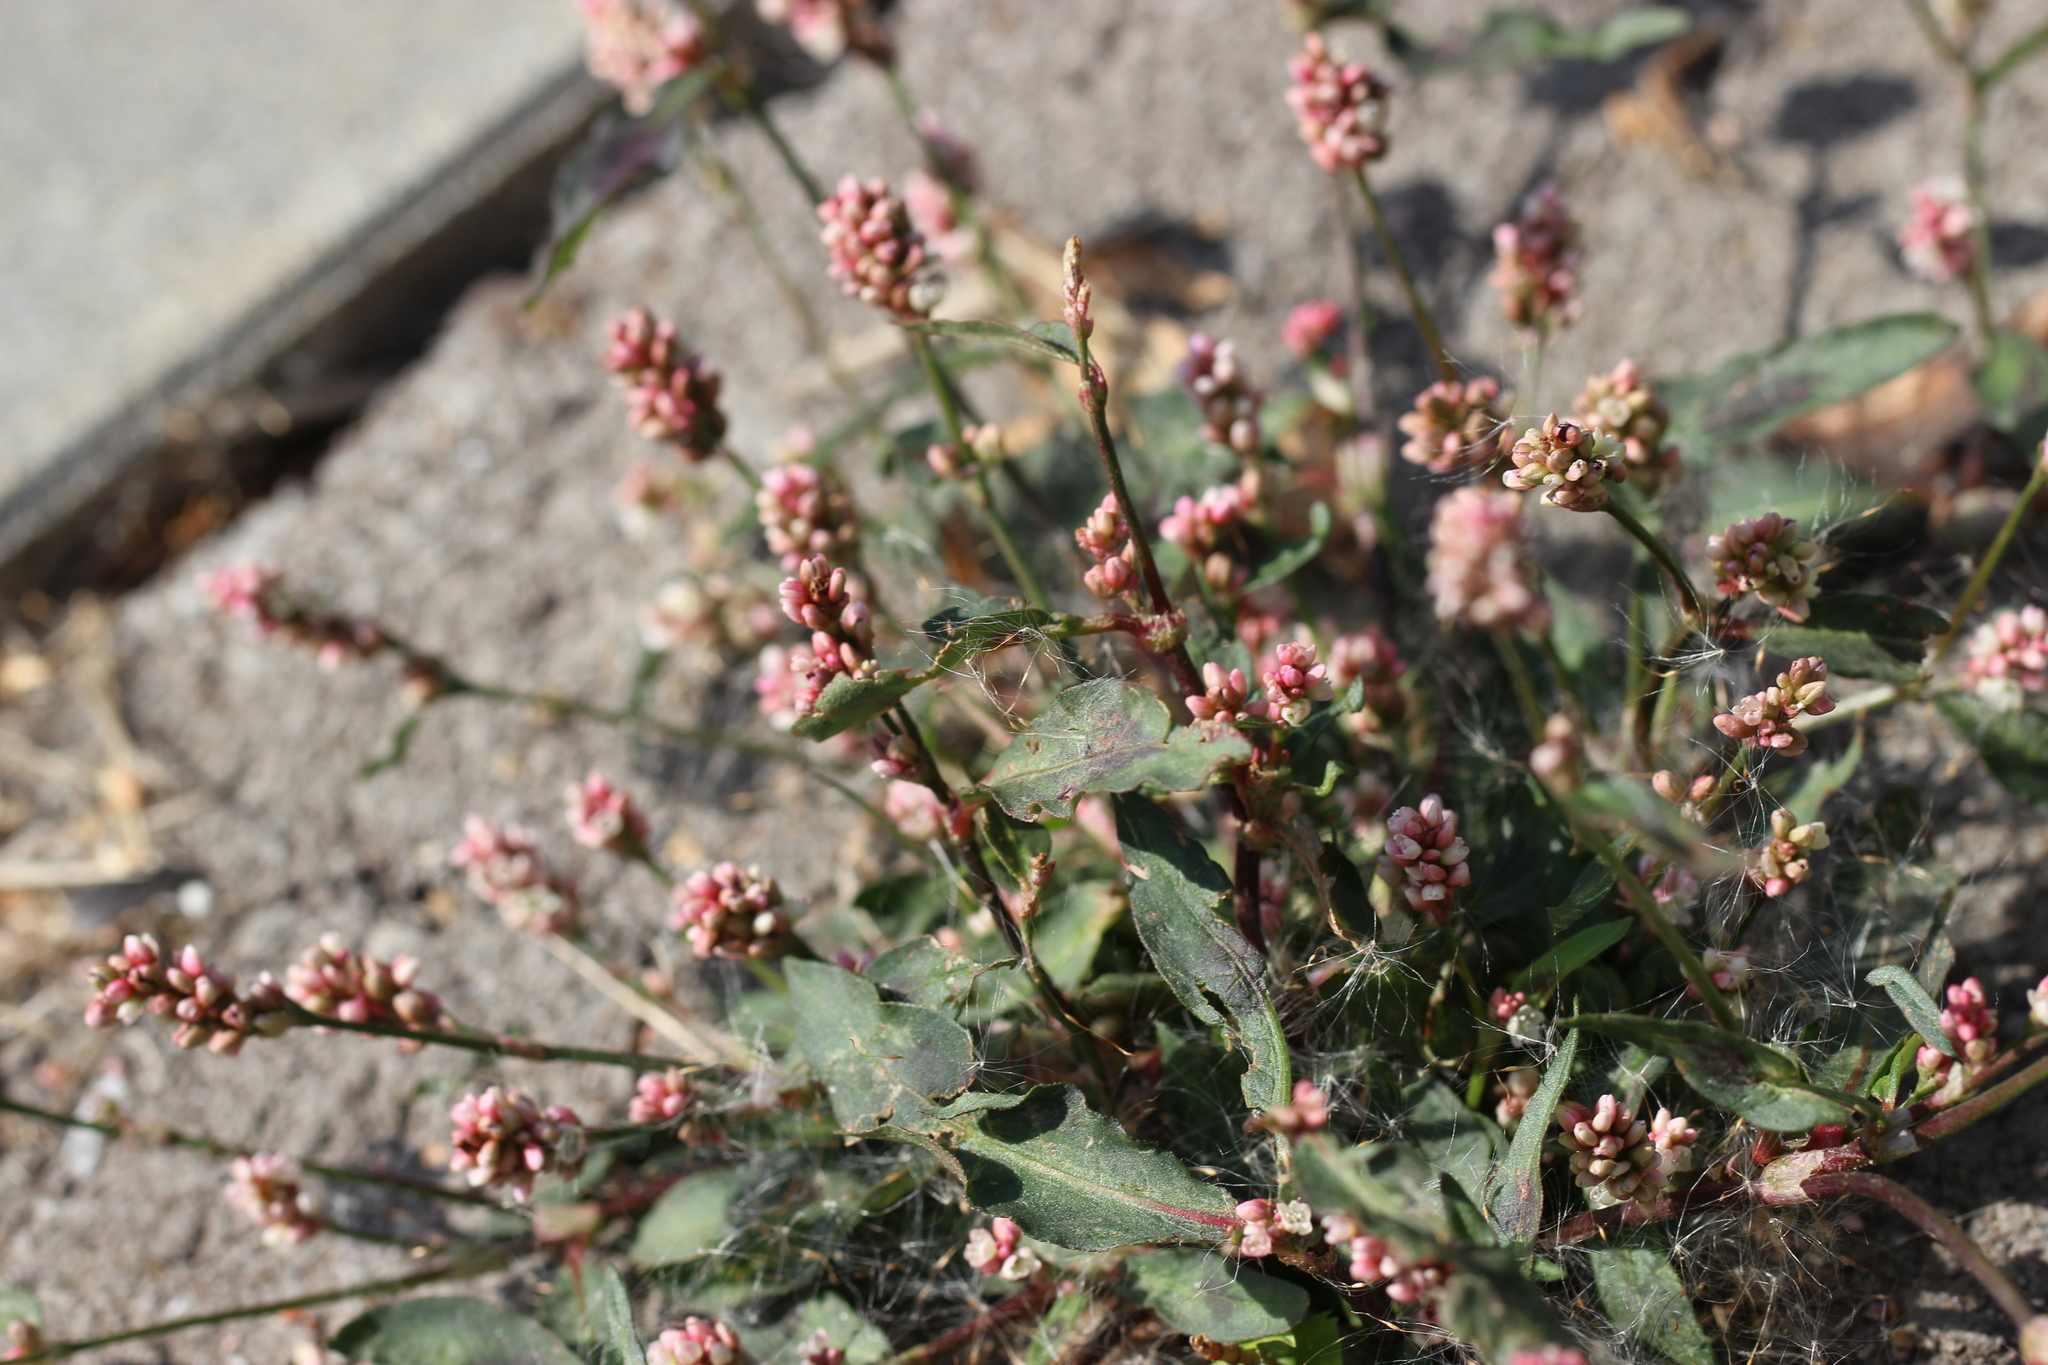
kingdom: Plantae
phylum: Tracheophyta
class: Magnoliopsida
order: Caryophyllales
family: Polygonaceae
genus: Persicaria
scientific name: Persicaria maculosa
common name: Redshank
